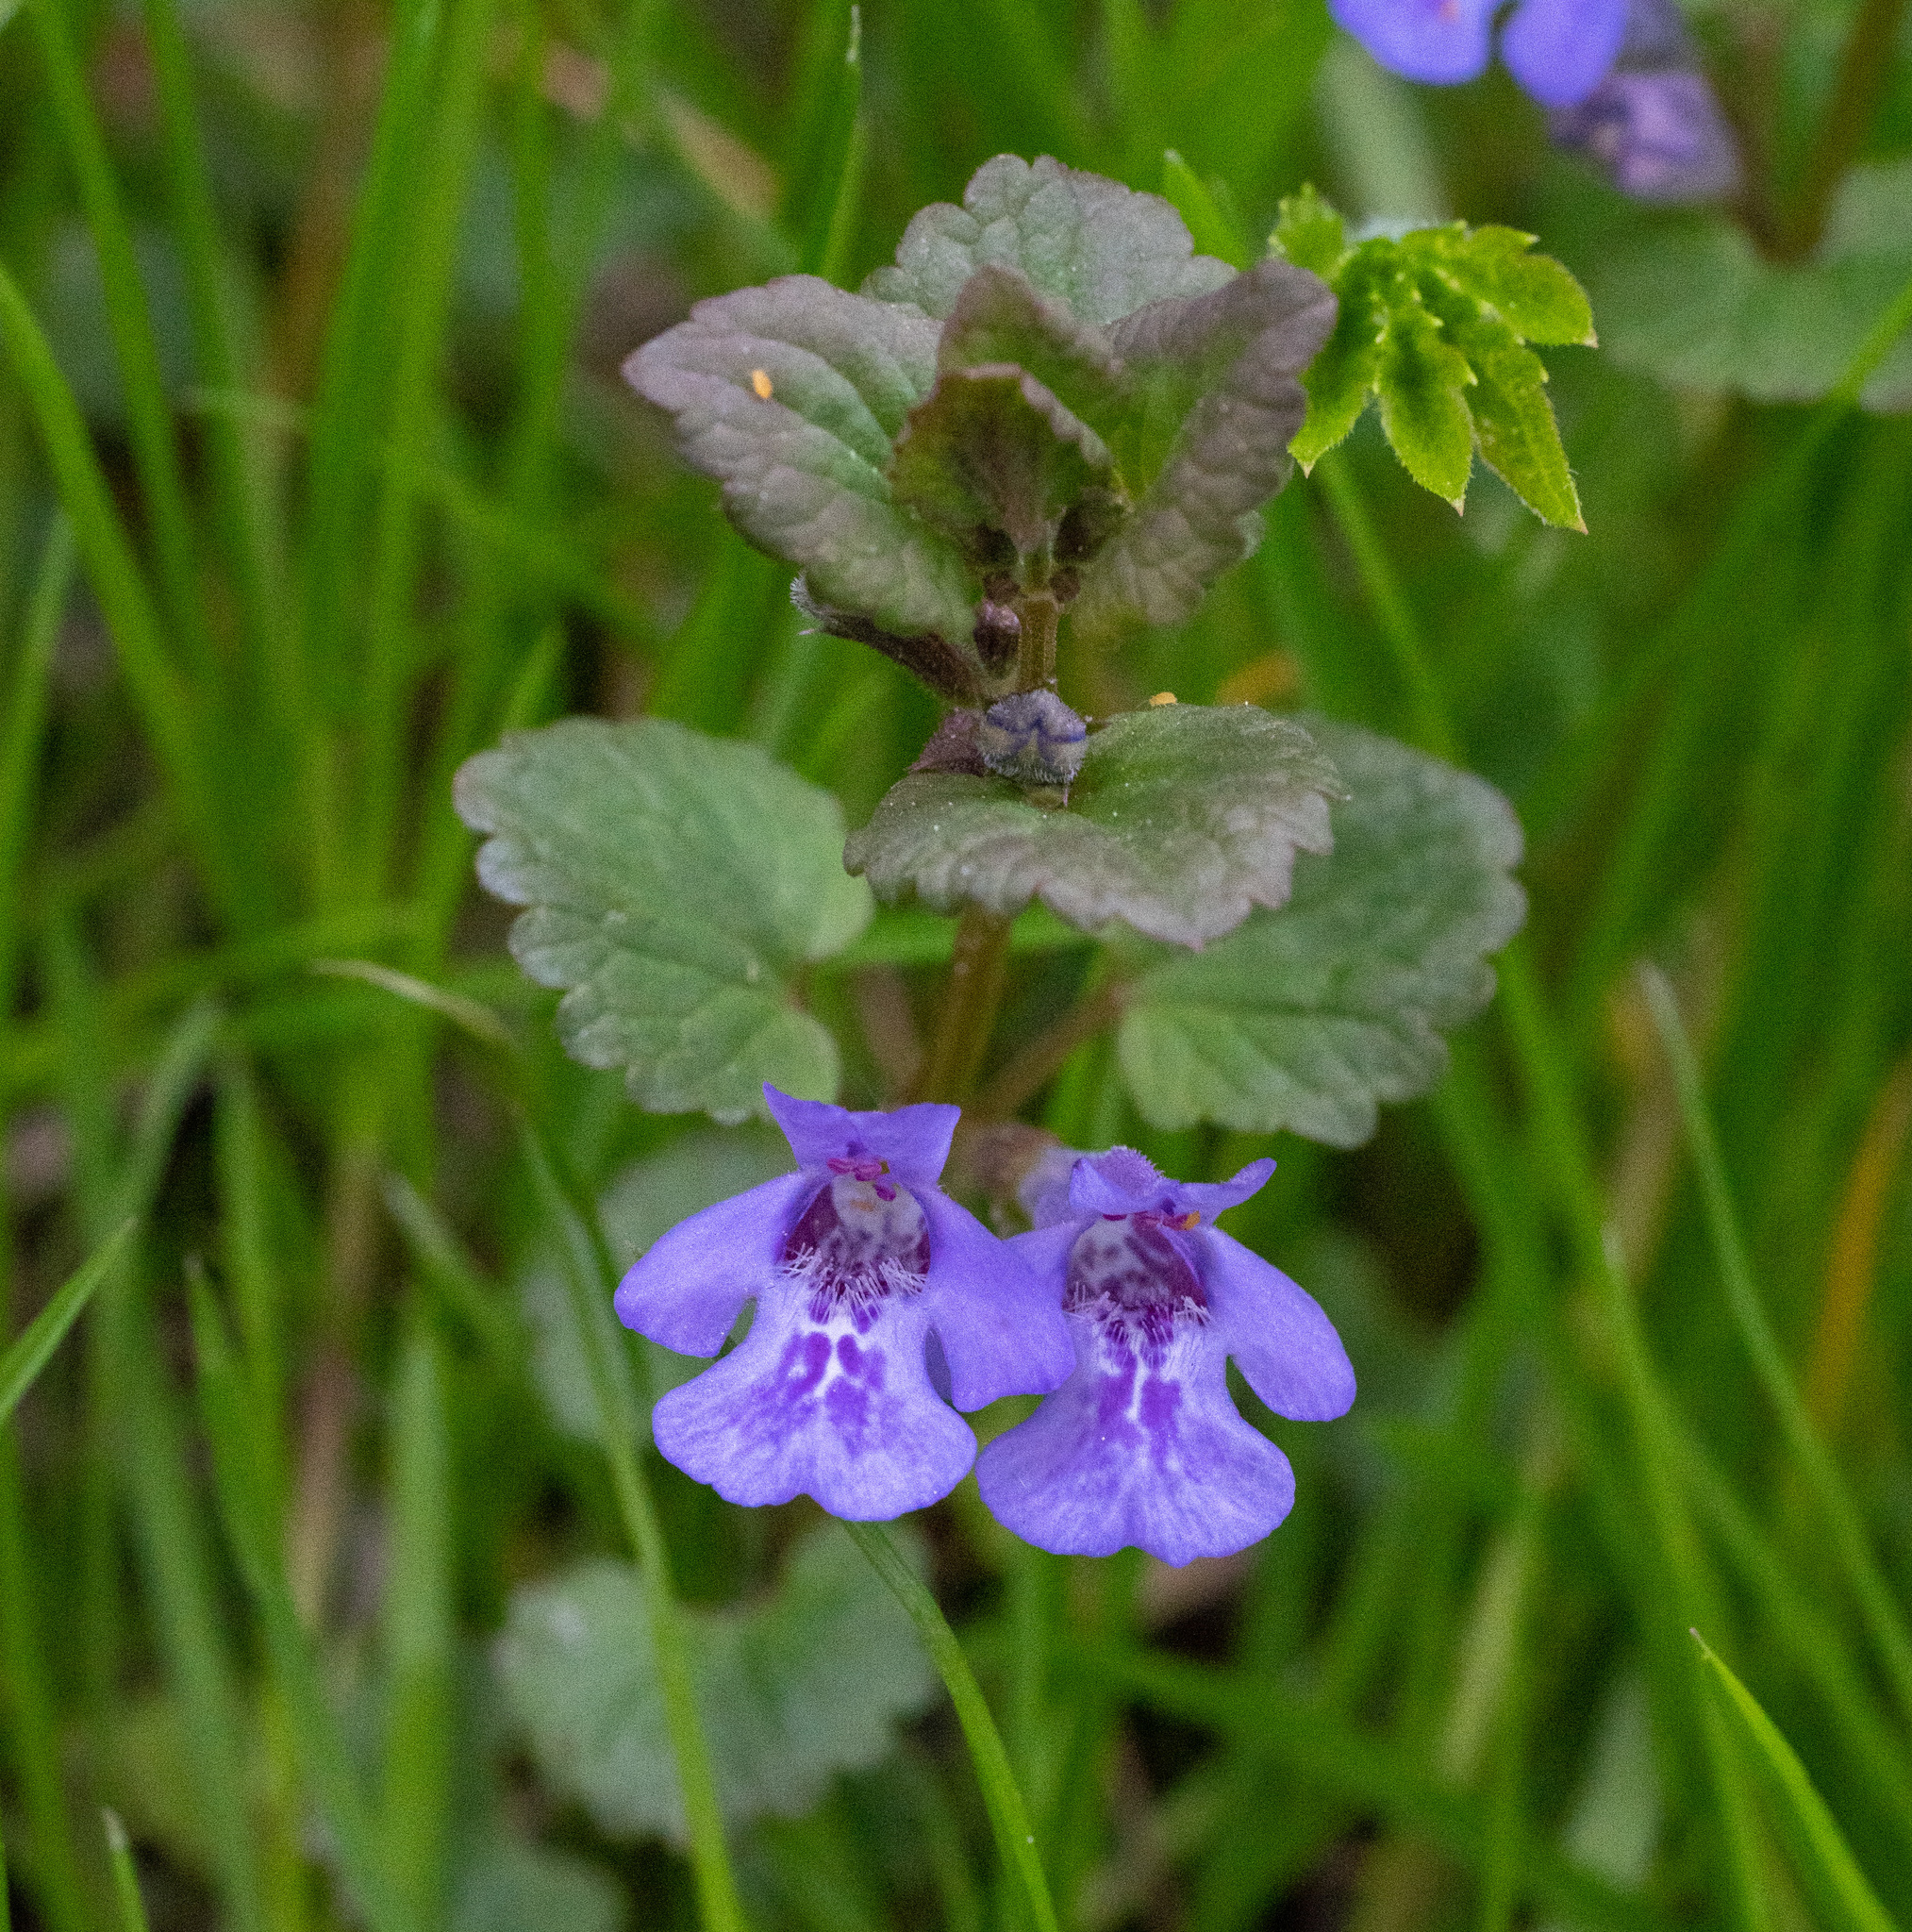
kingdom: Plantae
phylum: Tracheophyta
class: Magnoliopsida
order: Lamiales
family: Lamiaceae
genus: Glechoma
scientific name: Glechoma hederacea
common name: Ground ivy
